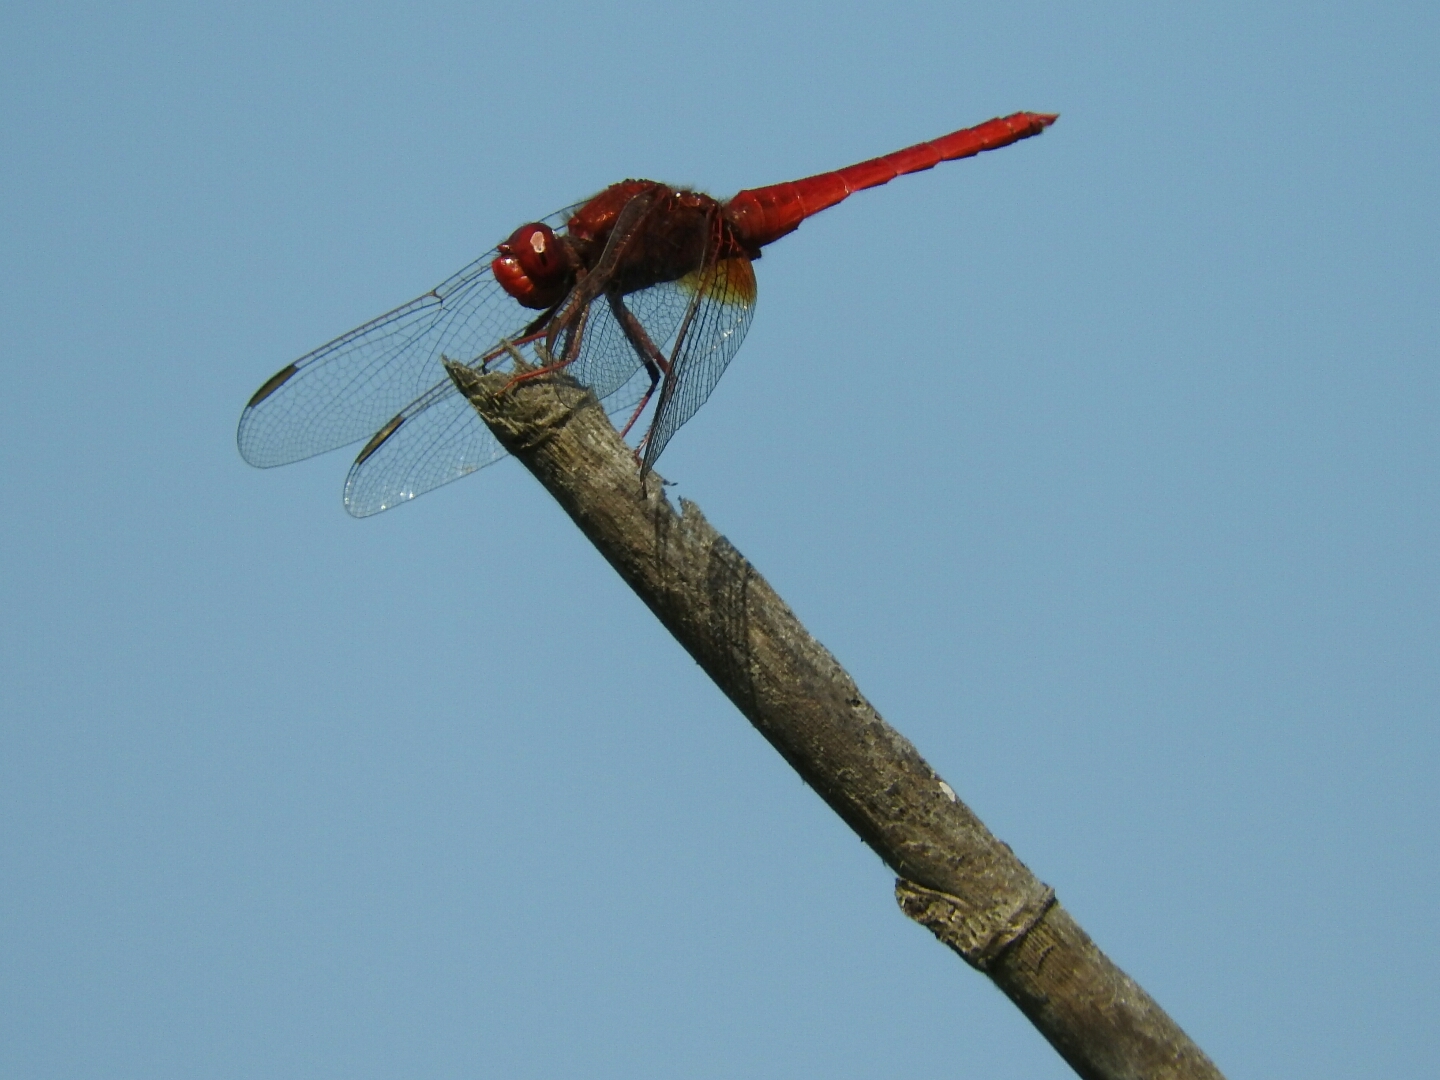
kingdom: Animalia
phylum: Arthropoda
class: Insecta
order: Odonata
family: Libellulidae
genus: Crocothemis
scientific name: Crocothemis erythraea
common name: Scarlet dragonfly
